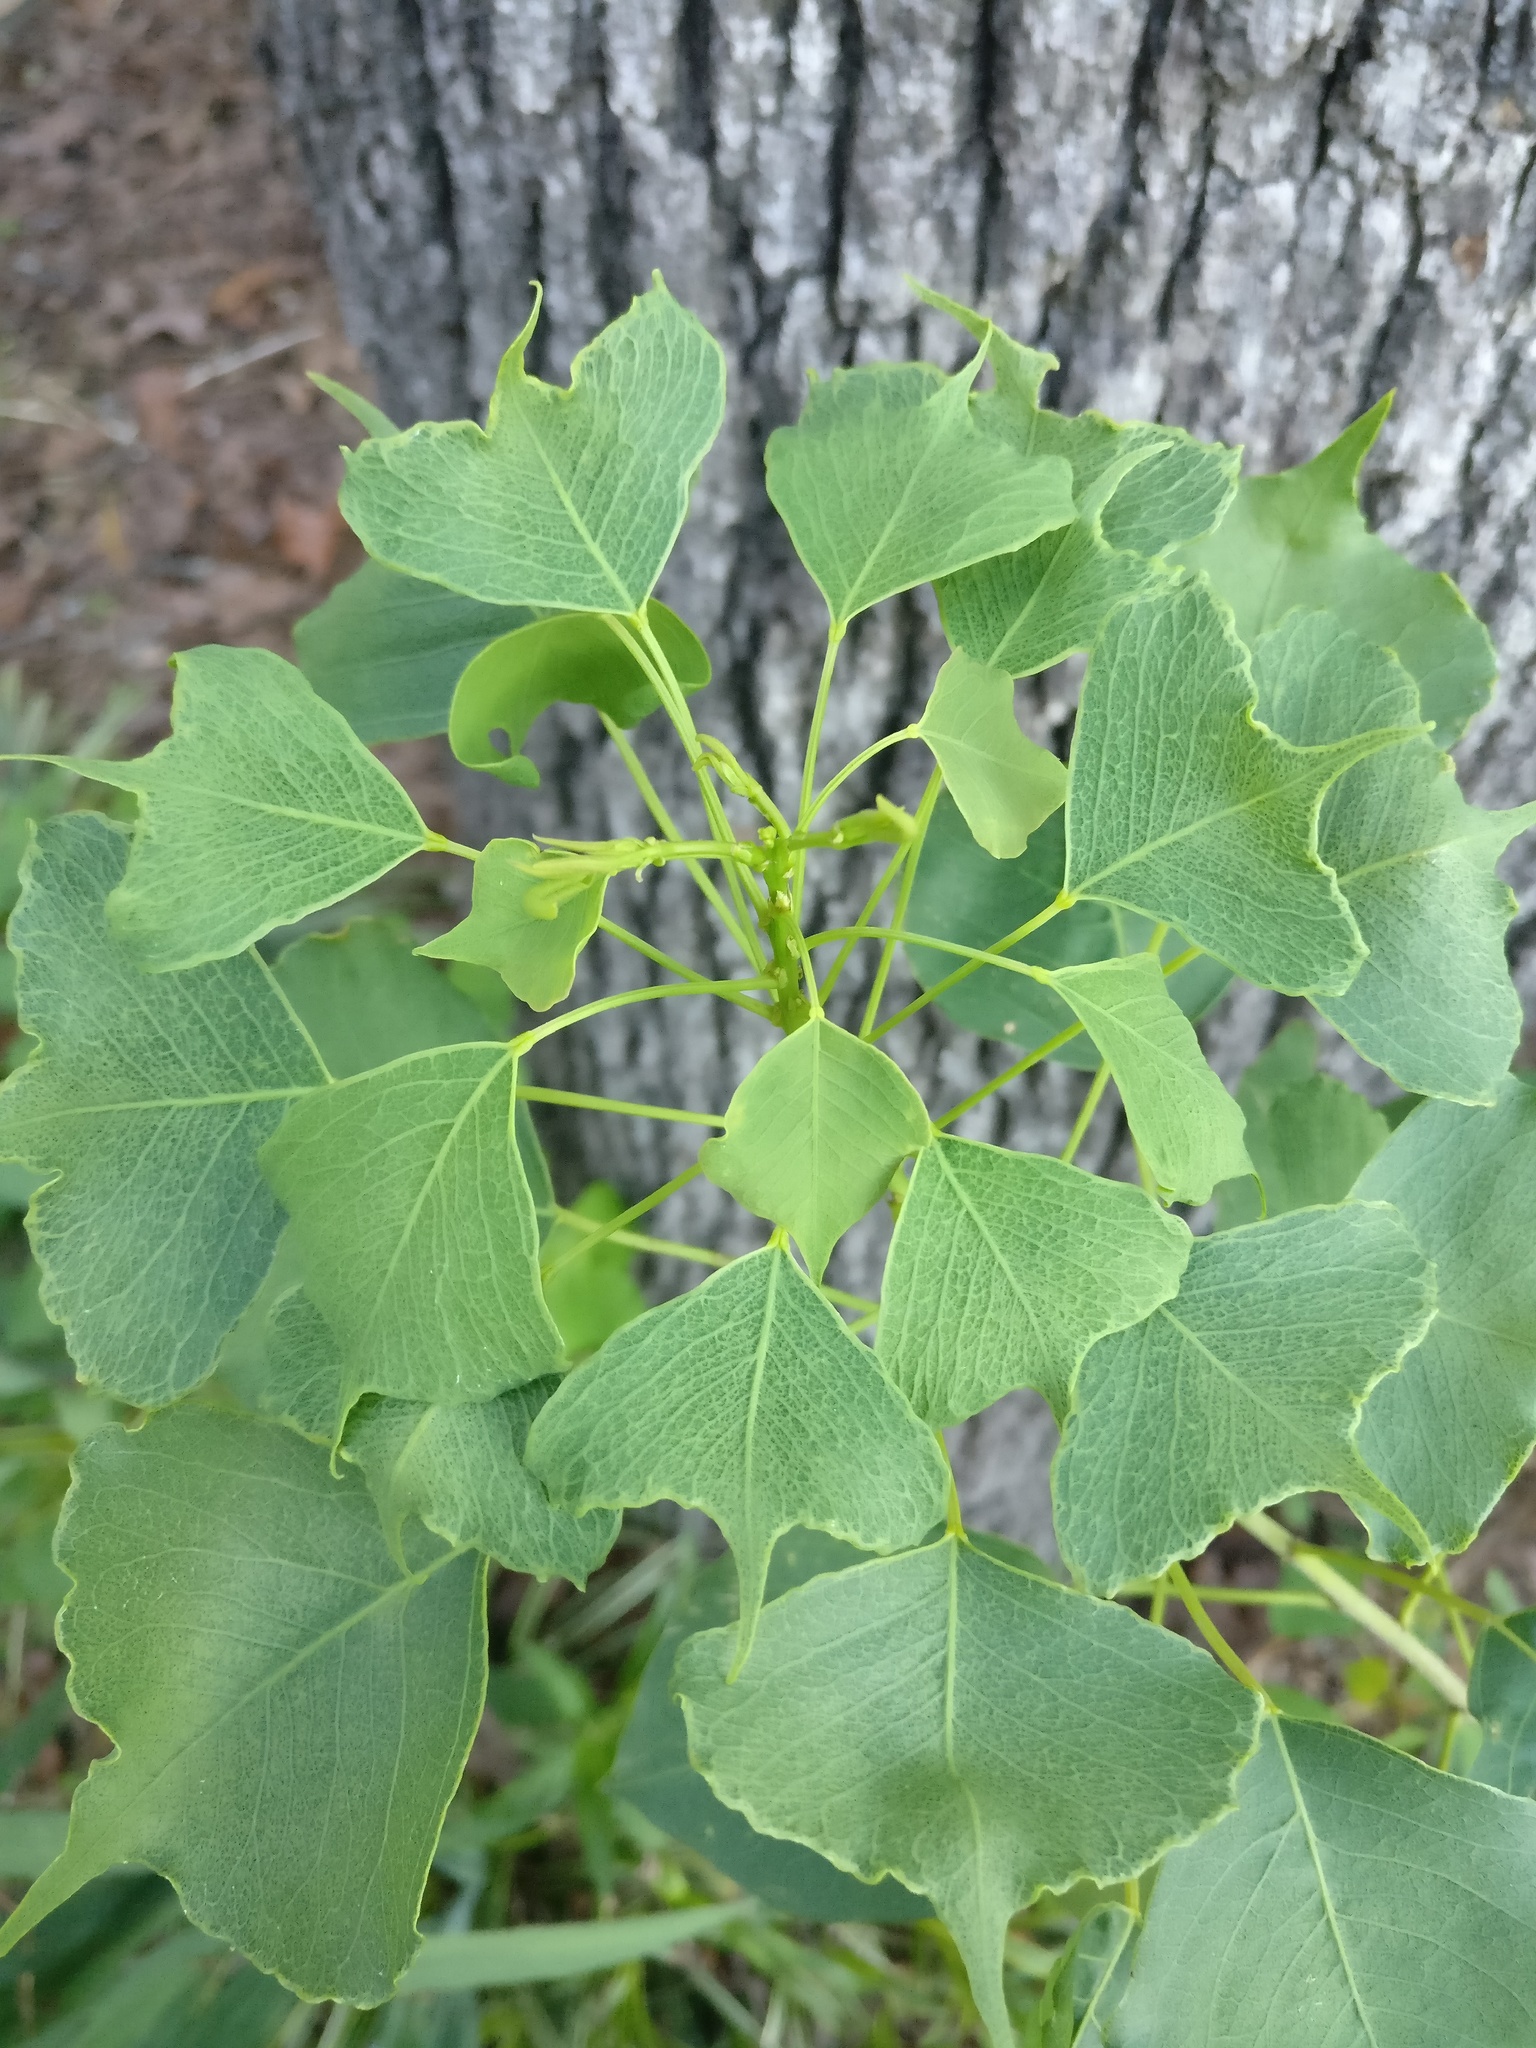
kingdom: Plantae
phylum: Tracheophyta
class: Magnoliopsida
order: Malpighiales
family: Euphorbiaceae
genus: Triadica
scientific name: Triadica sebifera
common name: Chinese tallow
